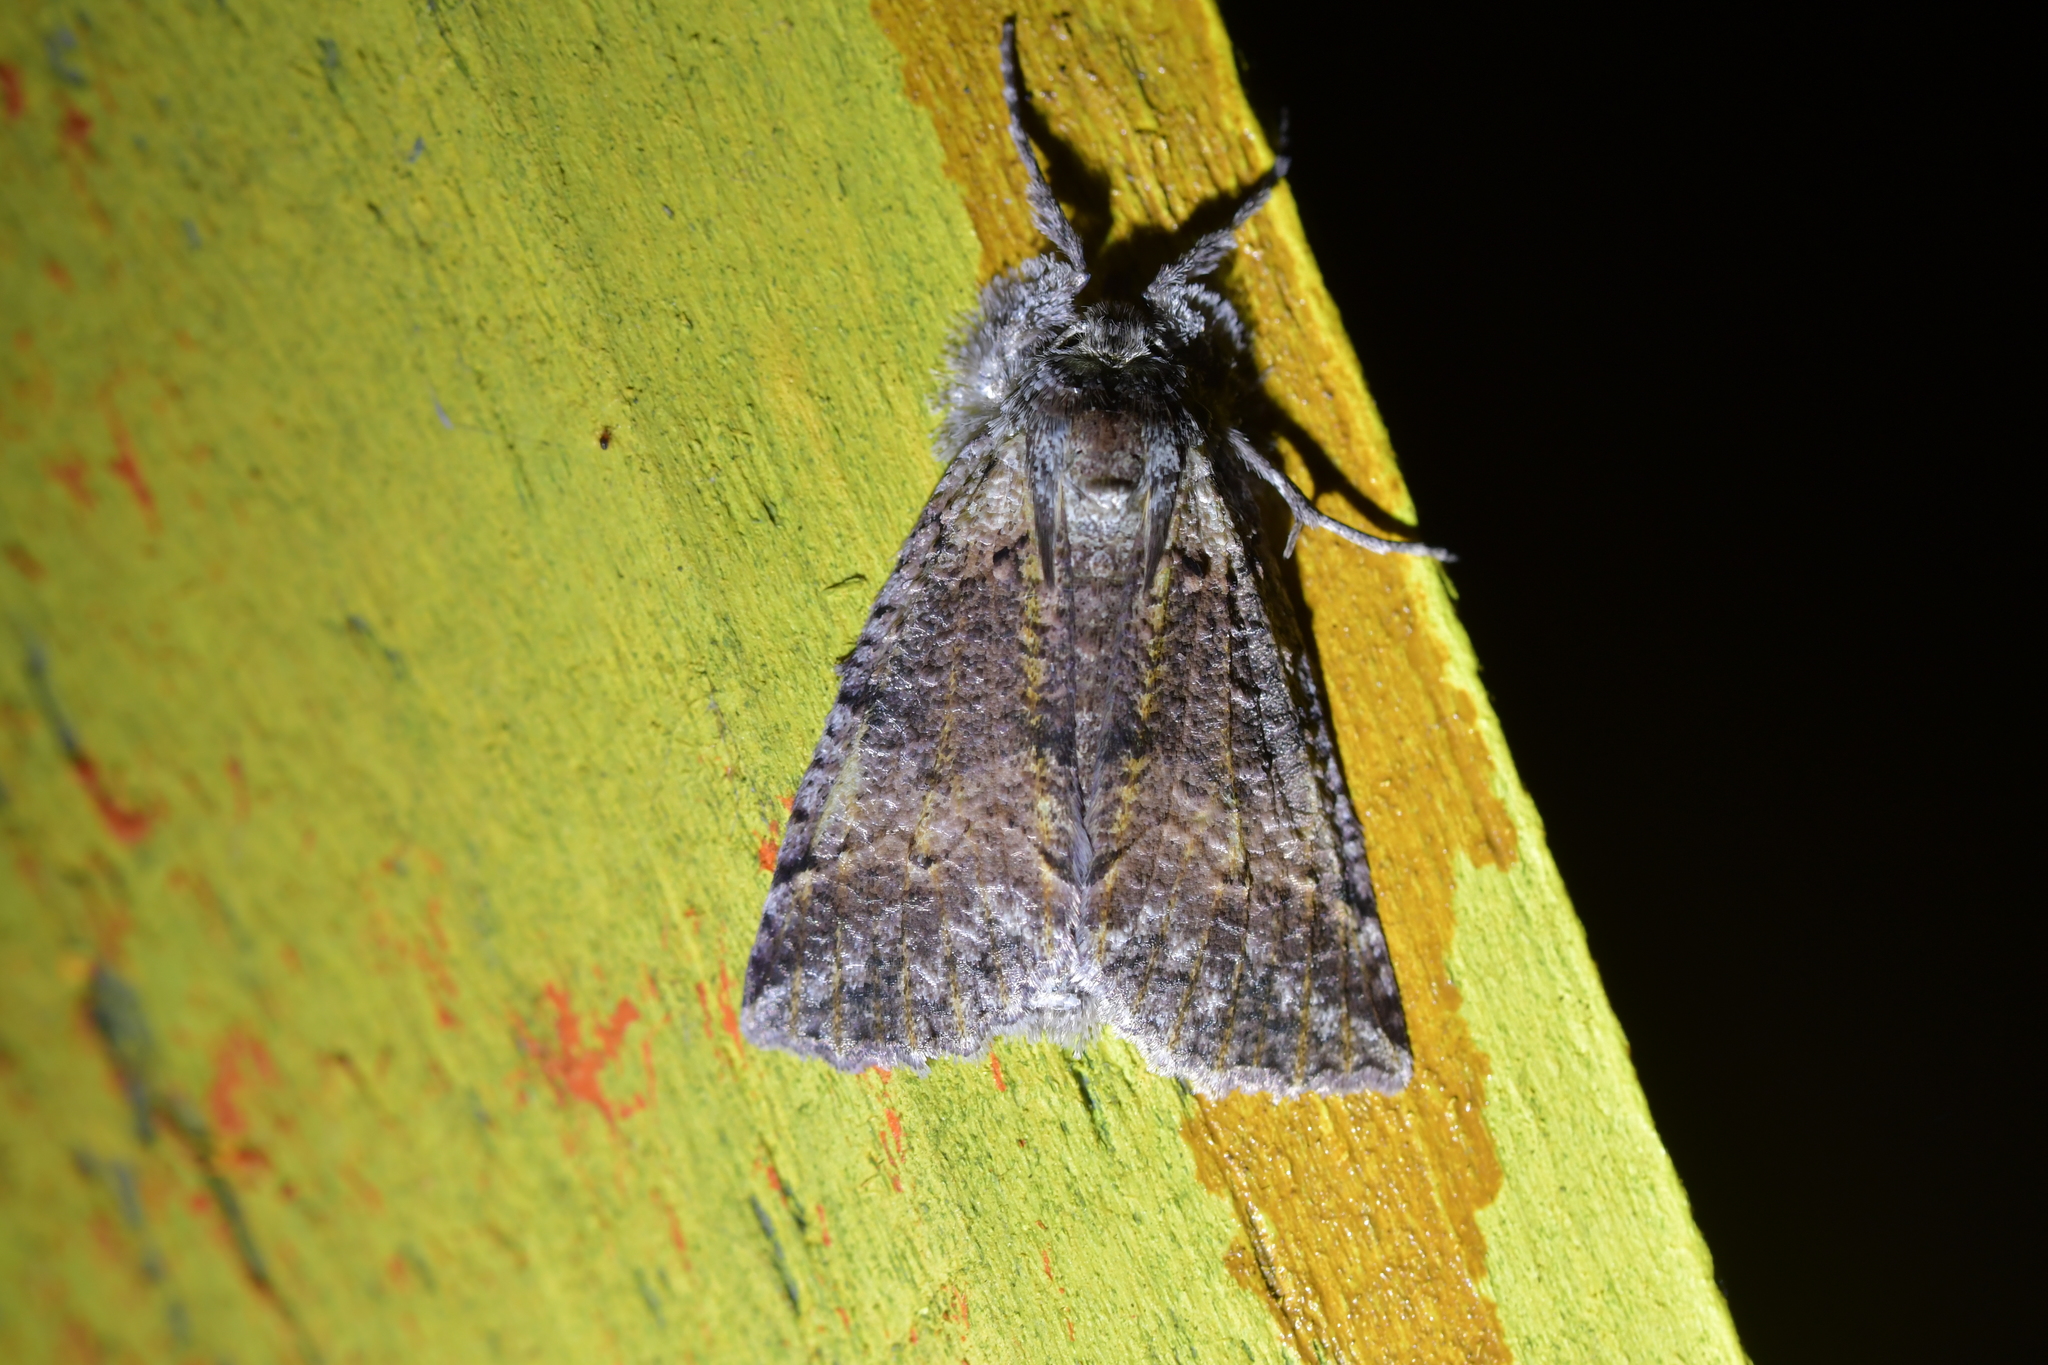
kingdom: Animalia
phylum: Arthropoda
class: Insecta
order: Lepidoptera
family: Geometridae
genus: Declana
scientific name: Declana floccosa
